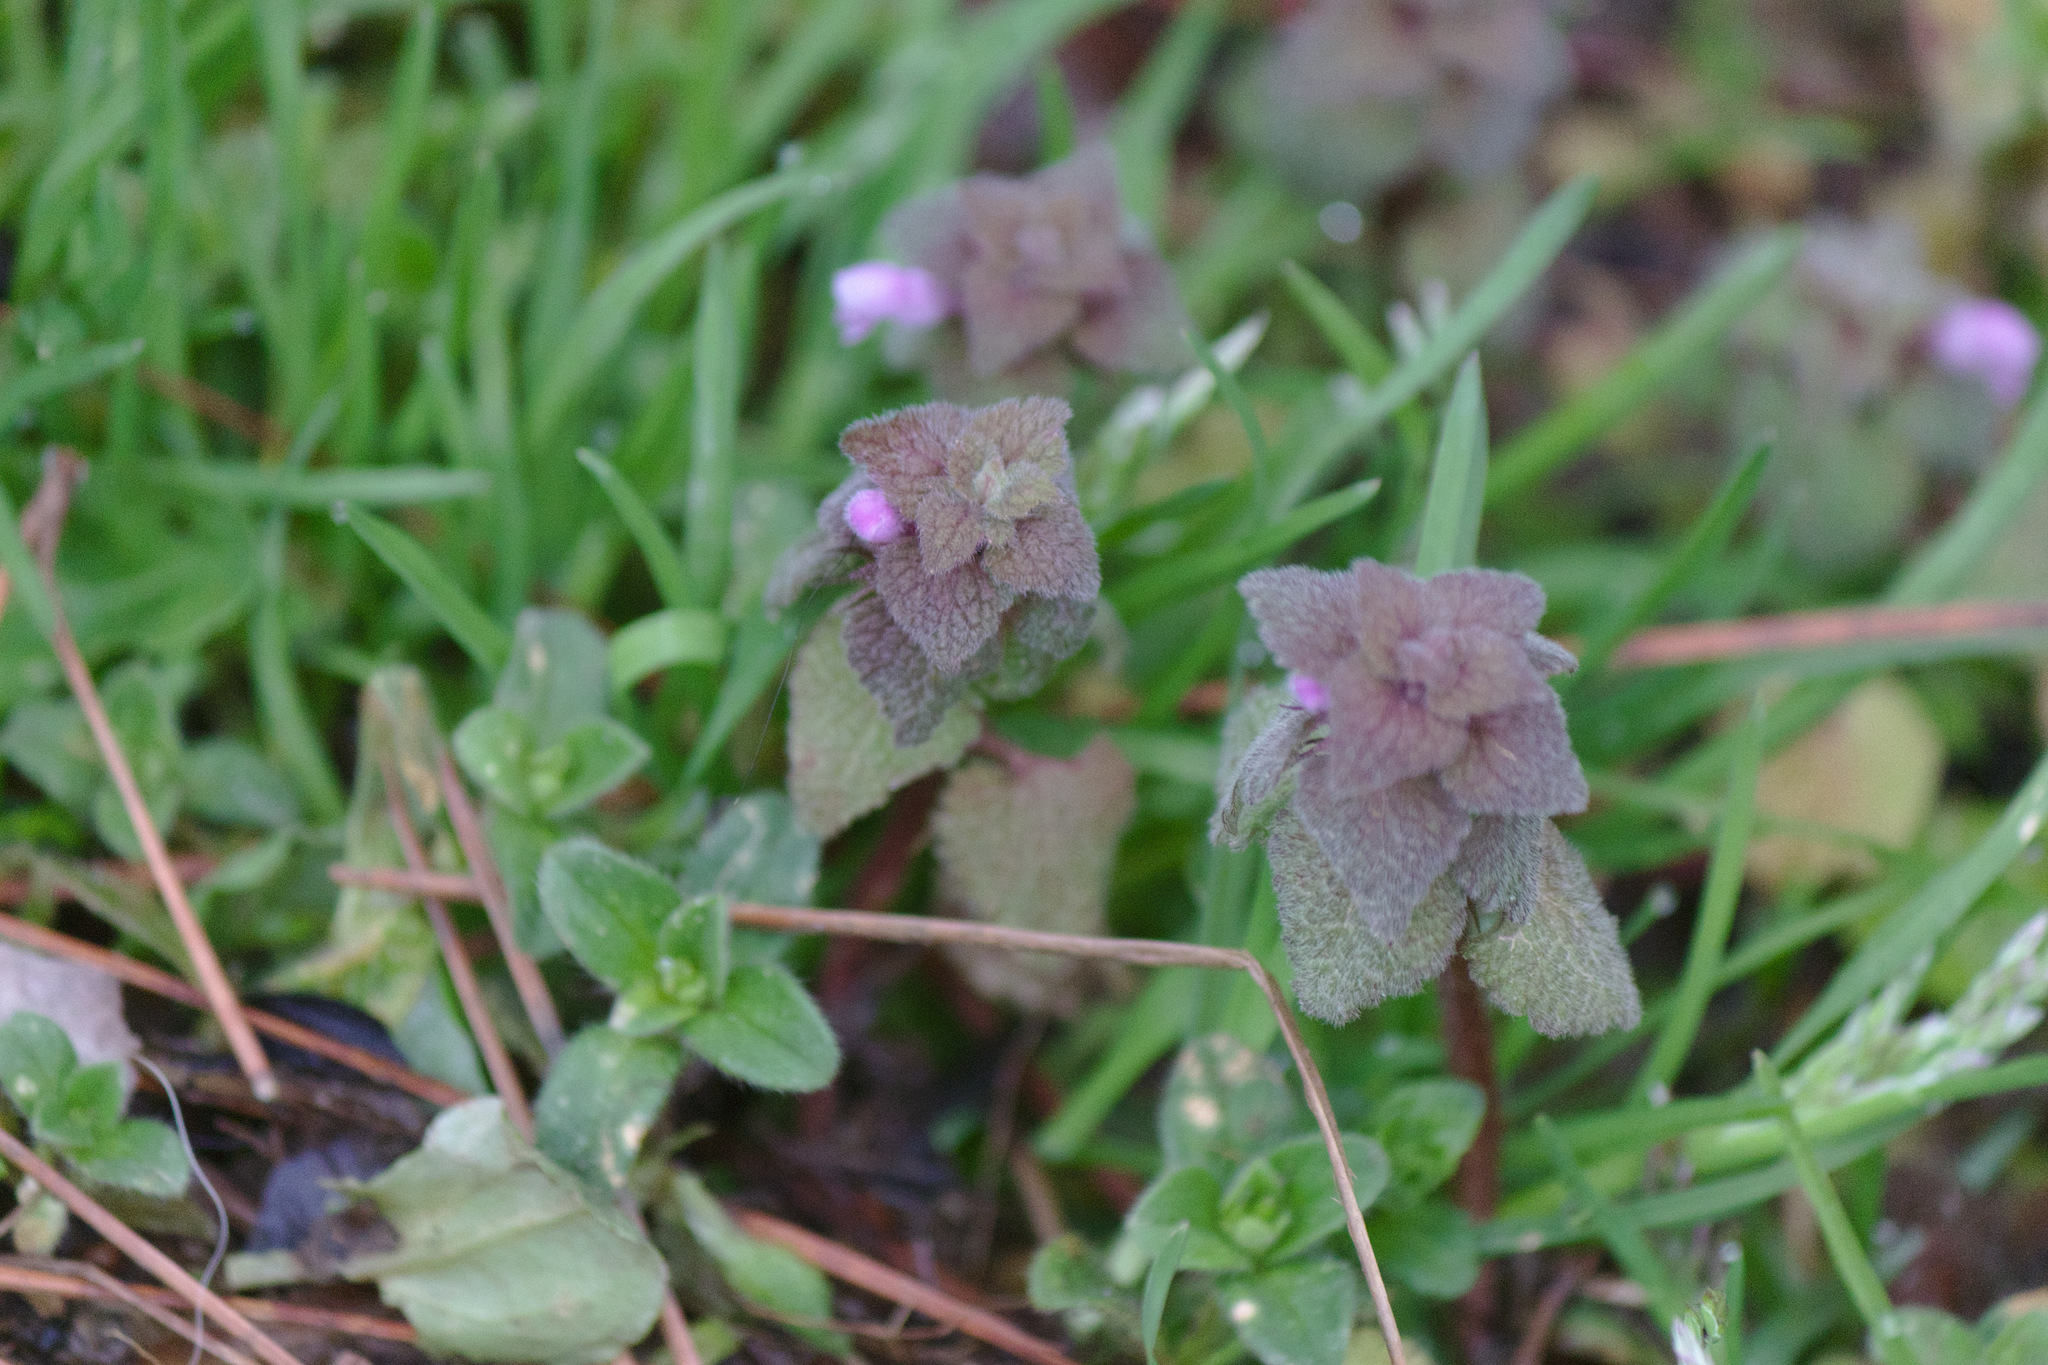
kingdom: Plantae
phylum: Tracheophyta
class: Magnoliopsida
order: Lamiales
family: Lamiaceae
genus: Lamium
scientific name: Lamium purpureum
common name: Red dead-nettle
